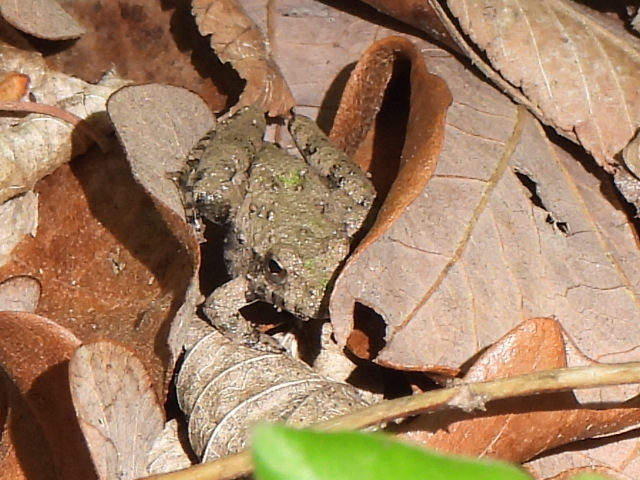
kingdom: Animalia
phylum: Chordata
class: Amphibia
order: Anura
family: Hylidae
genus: Acris
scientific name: Acris blanchardi
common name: Blanchard's cricket frog
